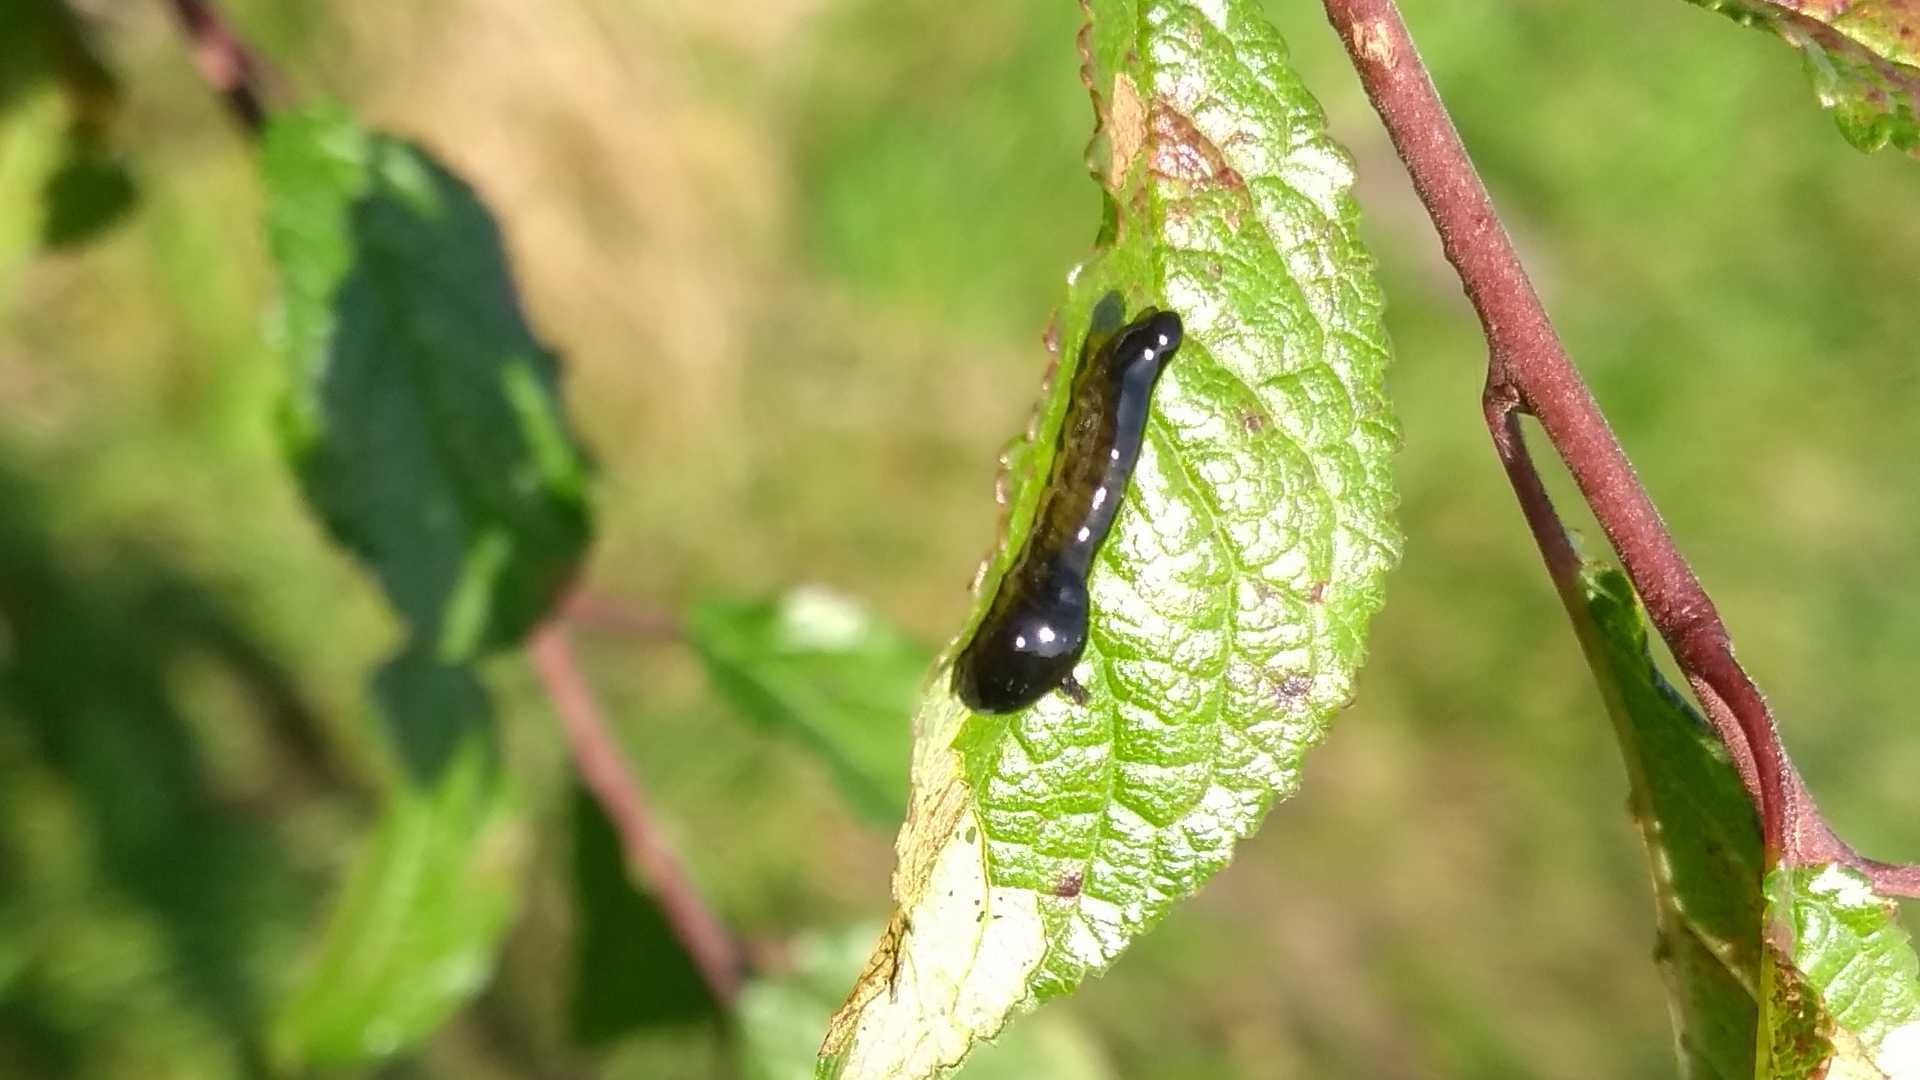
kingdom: Animalia
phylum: Arthropoda
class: Insecta
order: Hymenoptera
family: Tenthredinidae
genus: Caliroa
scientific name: Caliroa cerasi
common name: Pear sawfly
